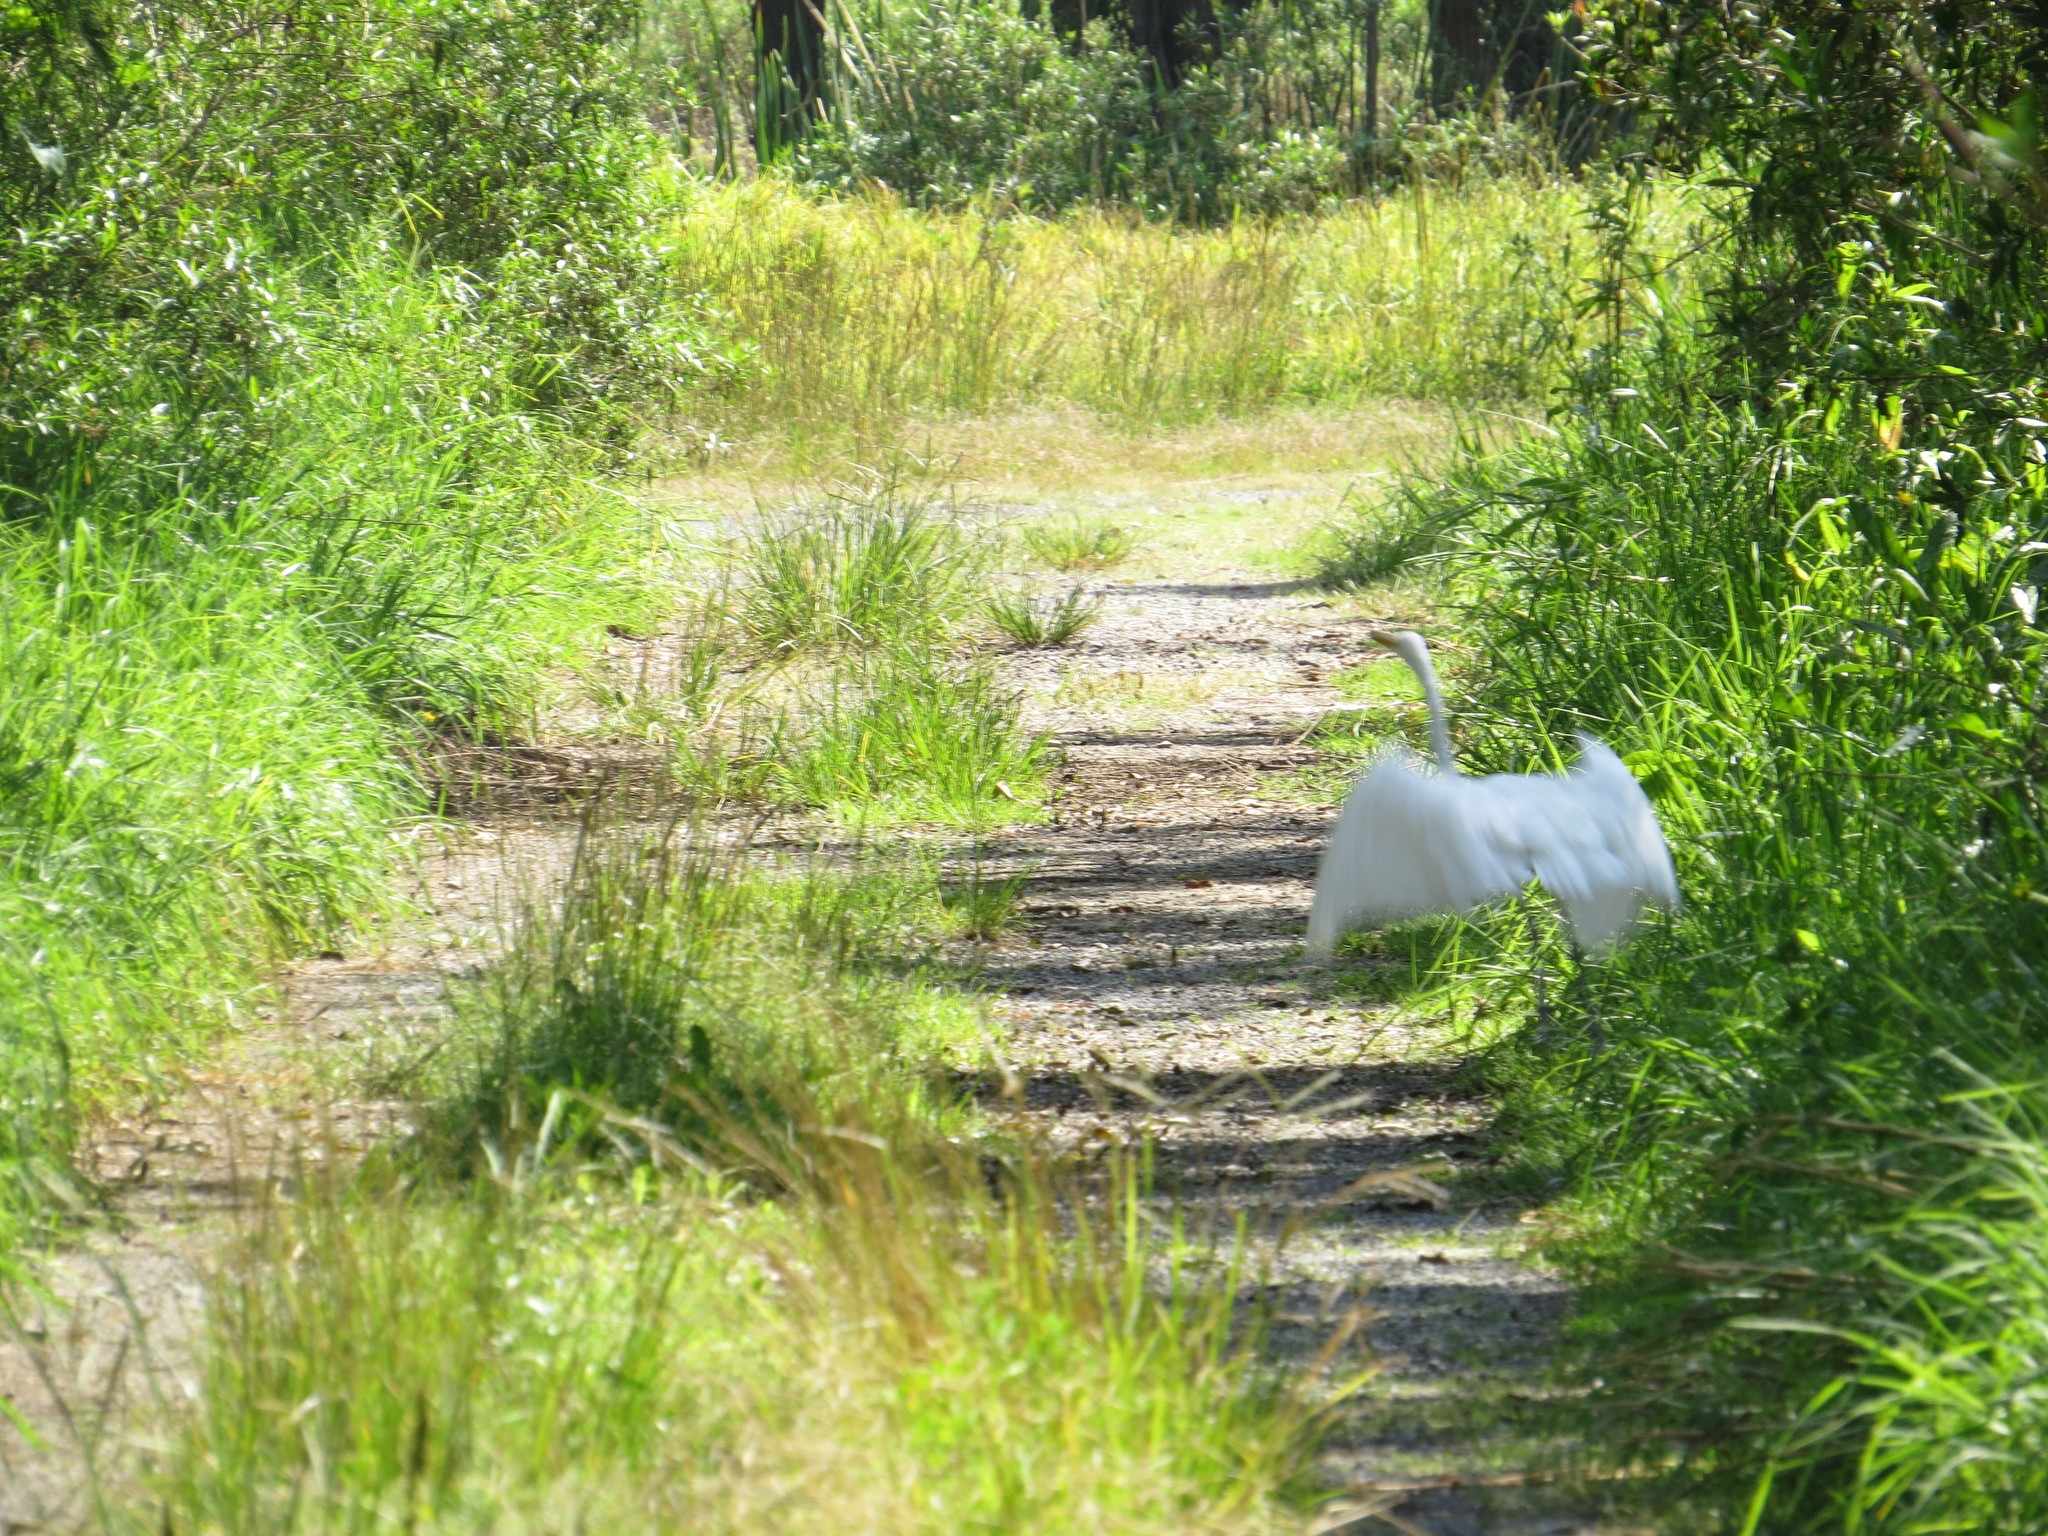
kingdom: Animalia
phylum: Chordata
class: Aves
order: Pelecaniformes
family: Ardeidae
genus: Ardea
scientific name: Ardea alba
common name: Great egret
